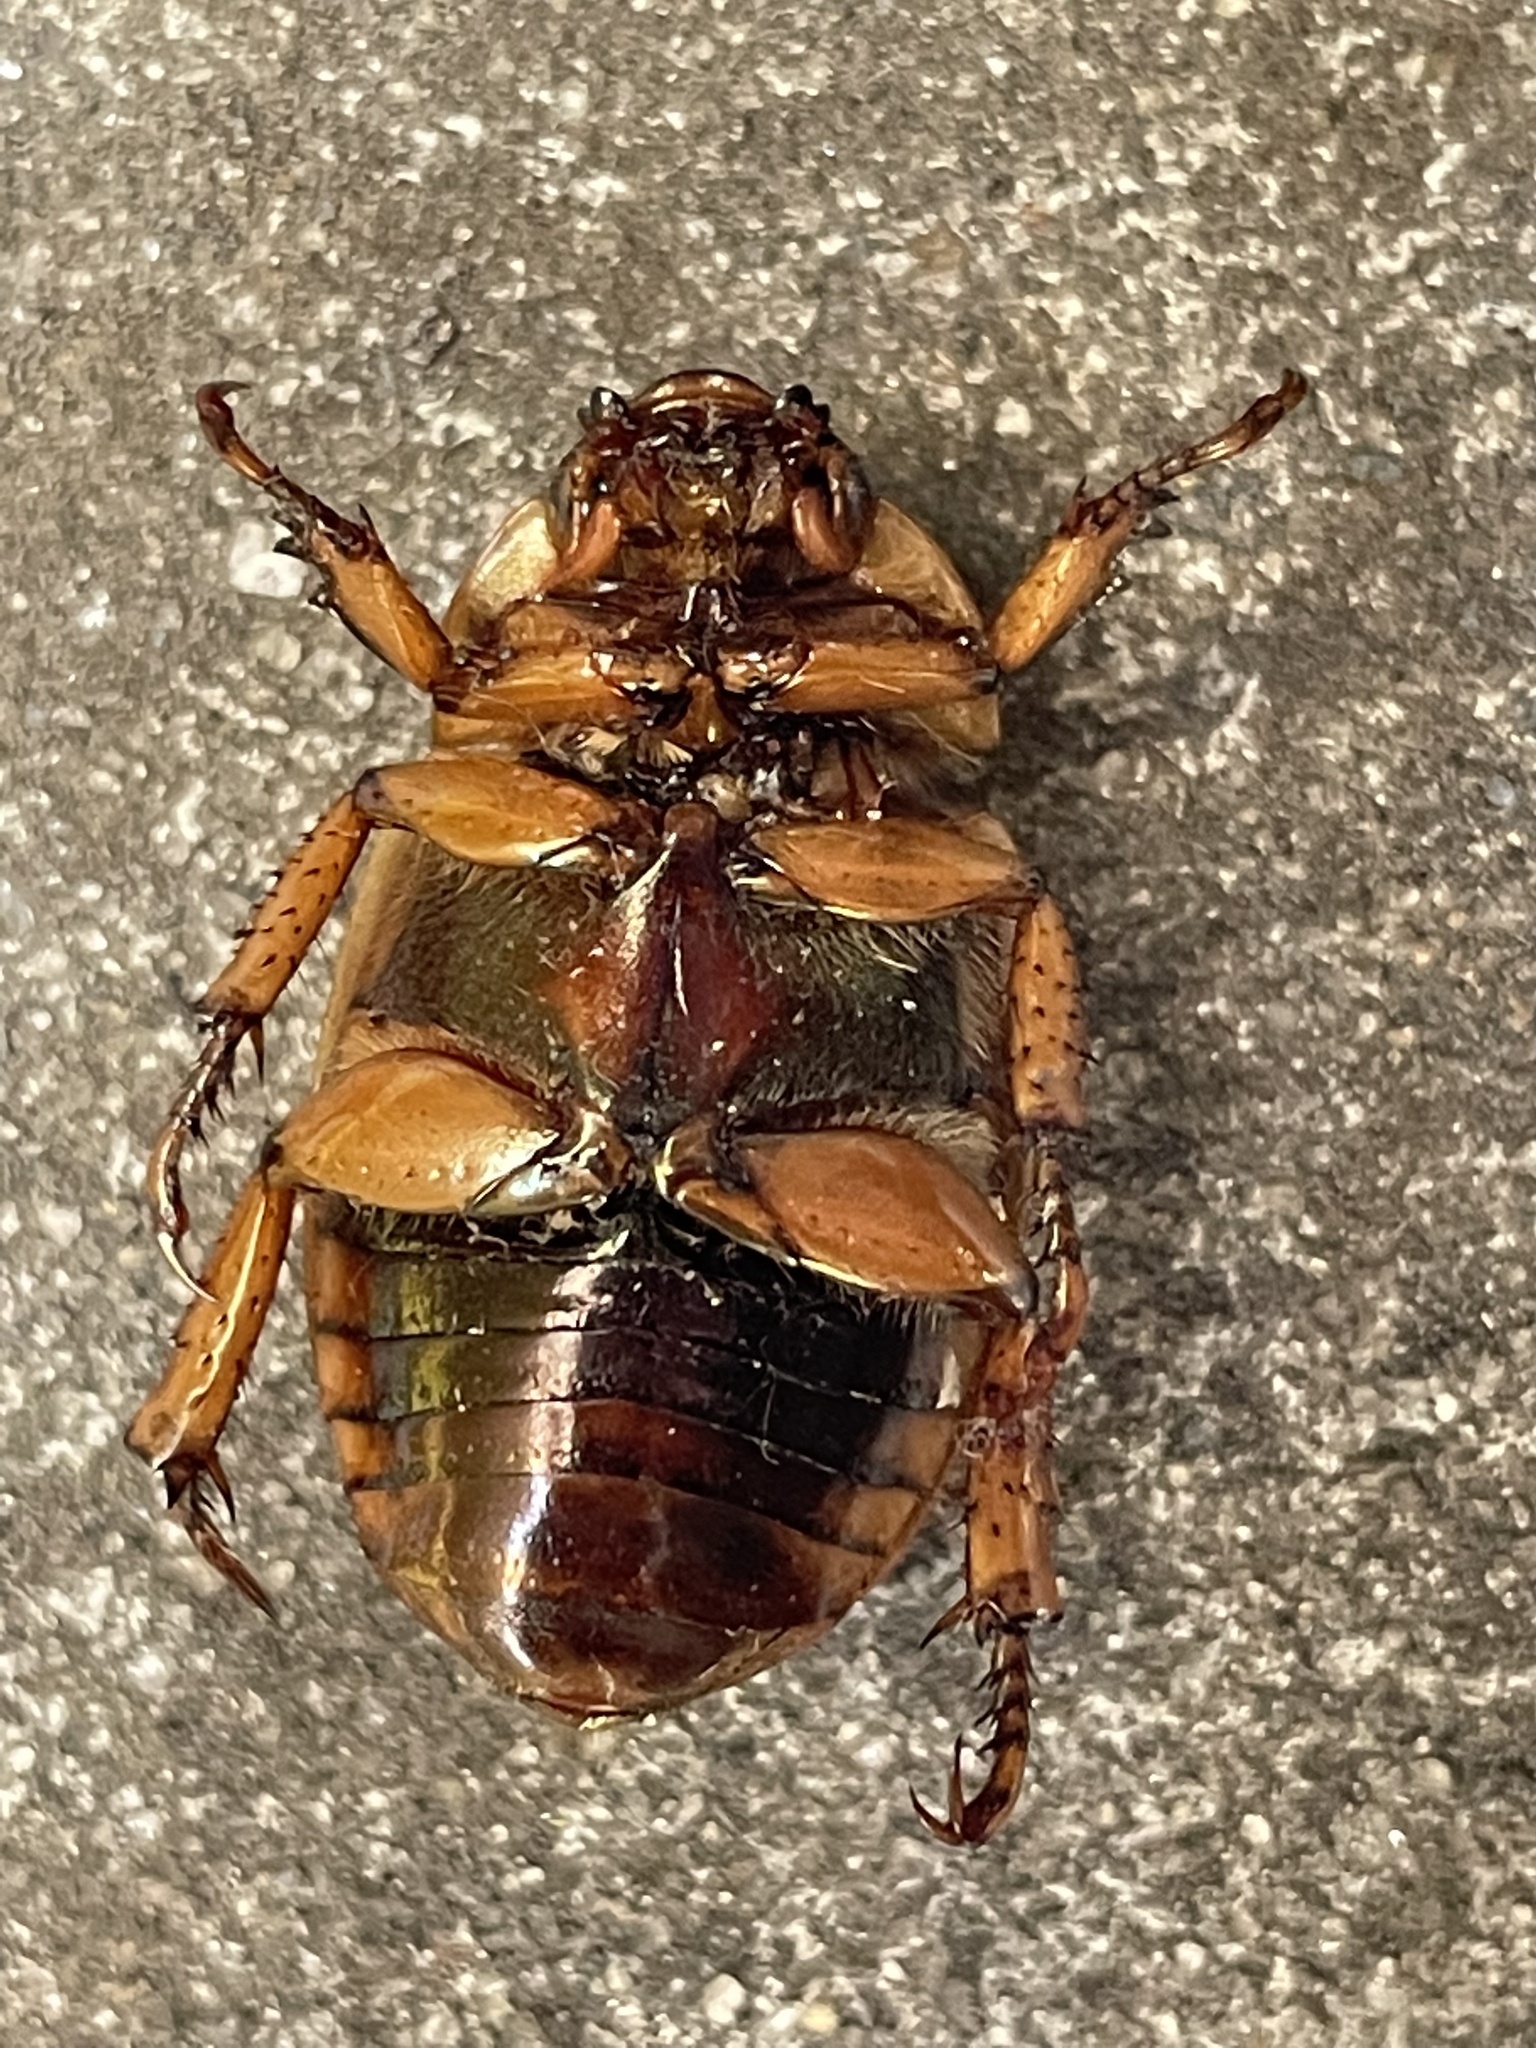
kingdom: Animalia
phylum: Arthropoda
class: Insecta
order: Coleoptera
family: Scarabaeidae
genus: Pelidnota
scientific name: Pelidnota punctata
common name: Grapevine beetle
